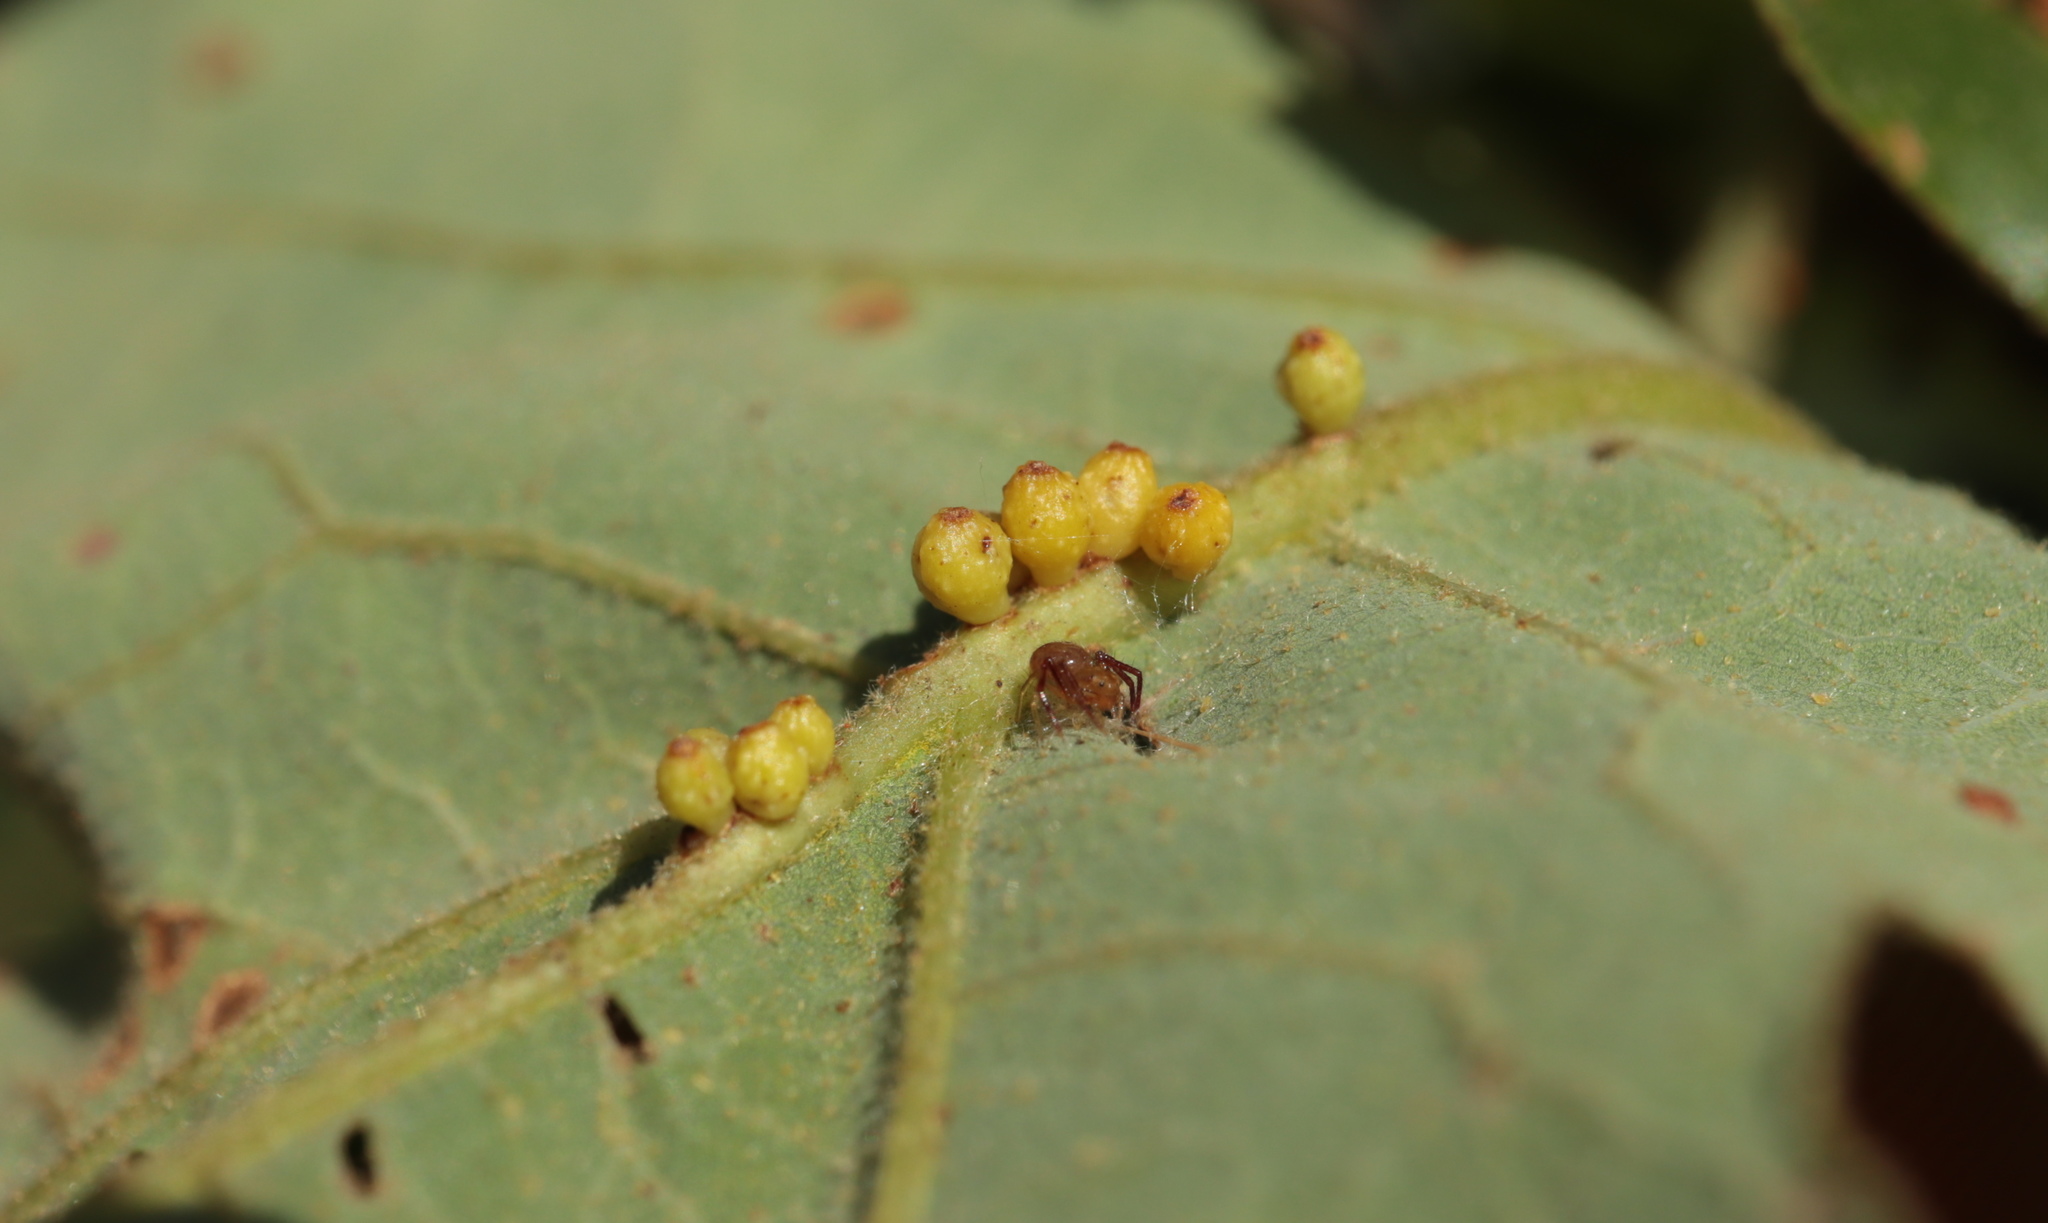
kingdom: Animalia
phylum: Arthropoda
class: Insecta
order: Hymenoptera
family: Cynipidae
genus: Andricus
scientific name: Andricus
